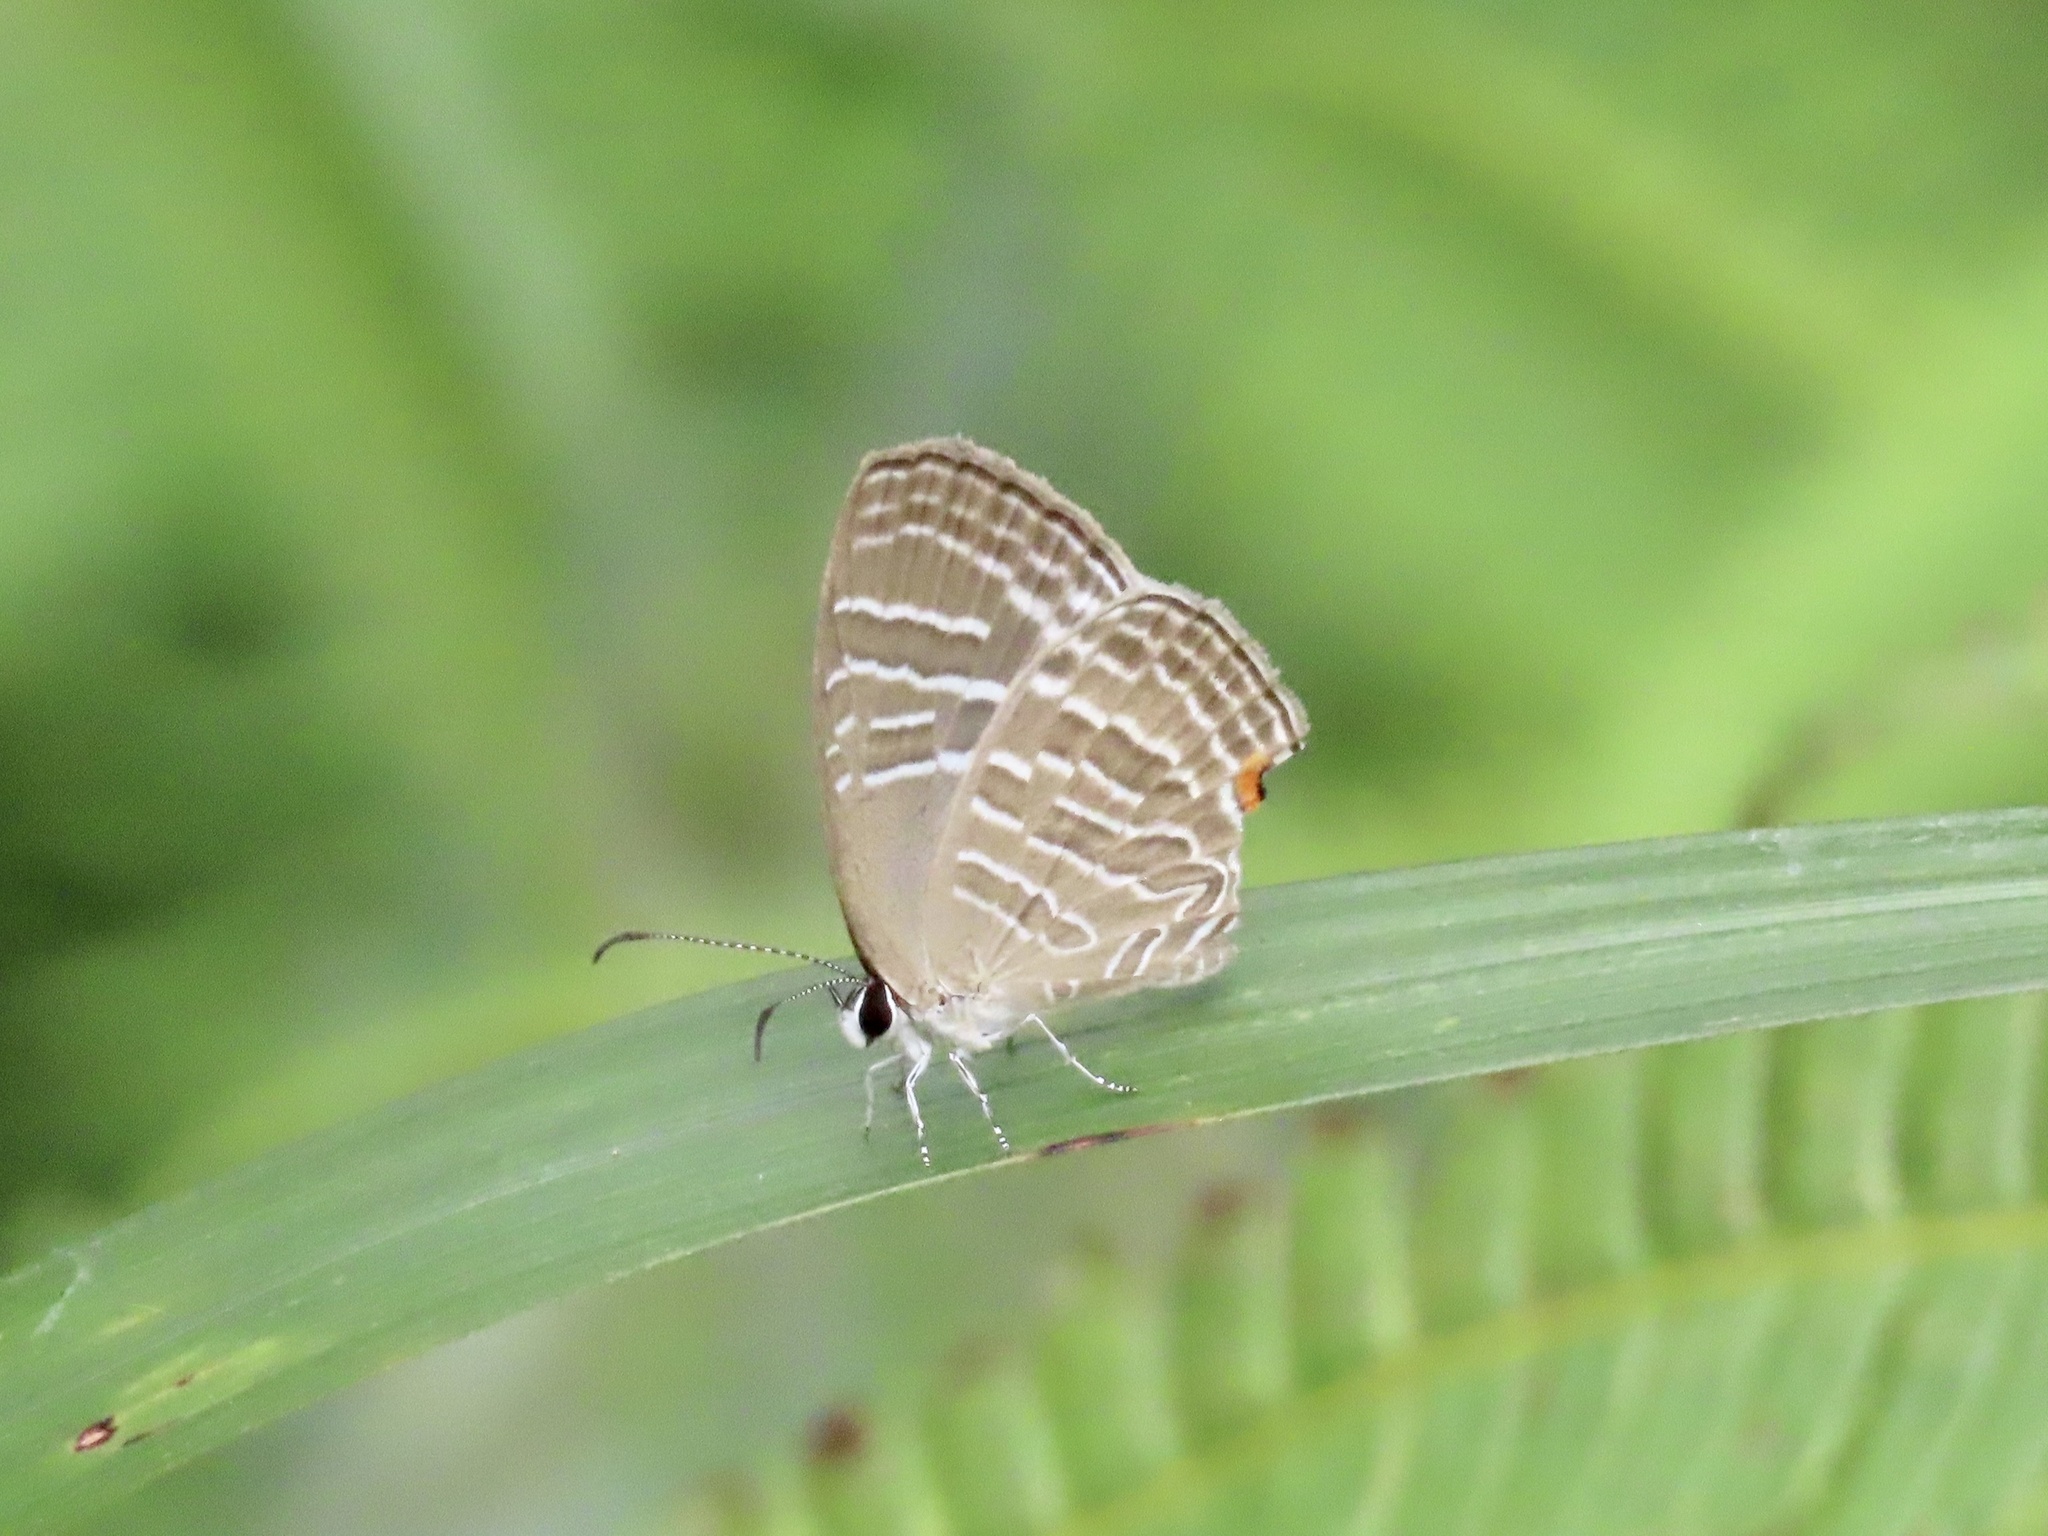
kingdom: Animalia
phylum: Arthropoda
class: Insecta
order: Lepidoptera
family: Lycaenidae
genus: Jamides
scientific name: Jamides celeno
